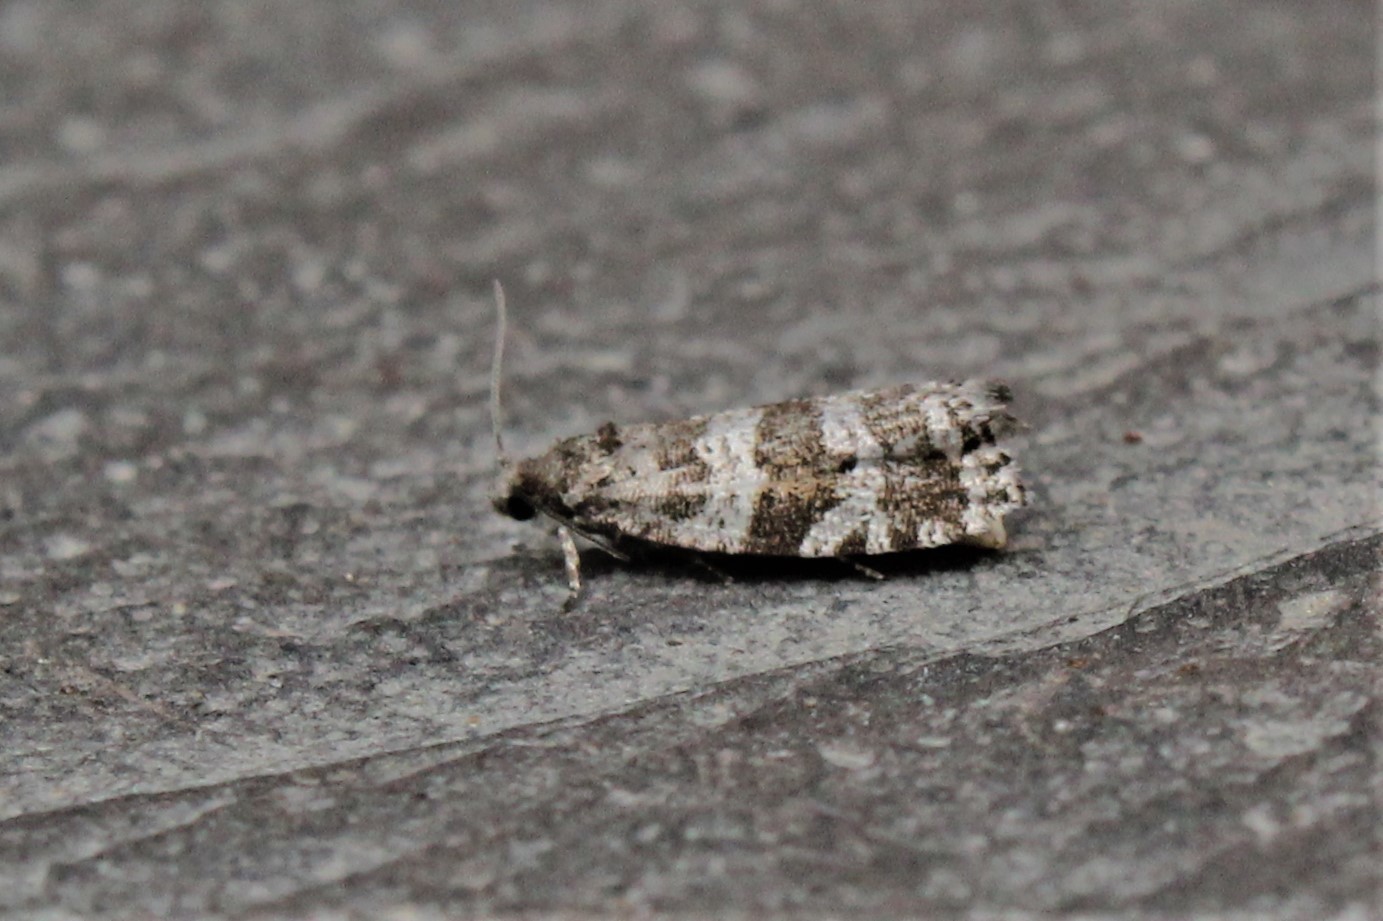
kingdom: Animalia
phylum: Arthropoda
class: Insecta
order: Lepidoptera
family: Tortricidae
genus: Taniva
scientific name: Taniva albolineana
